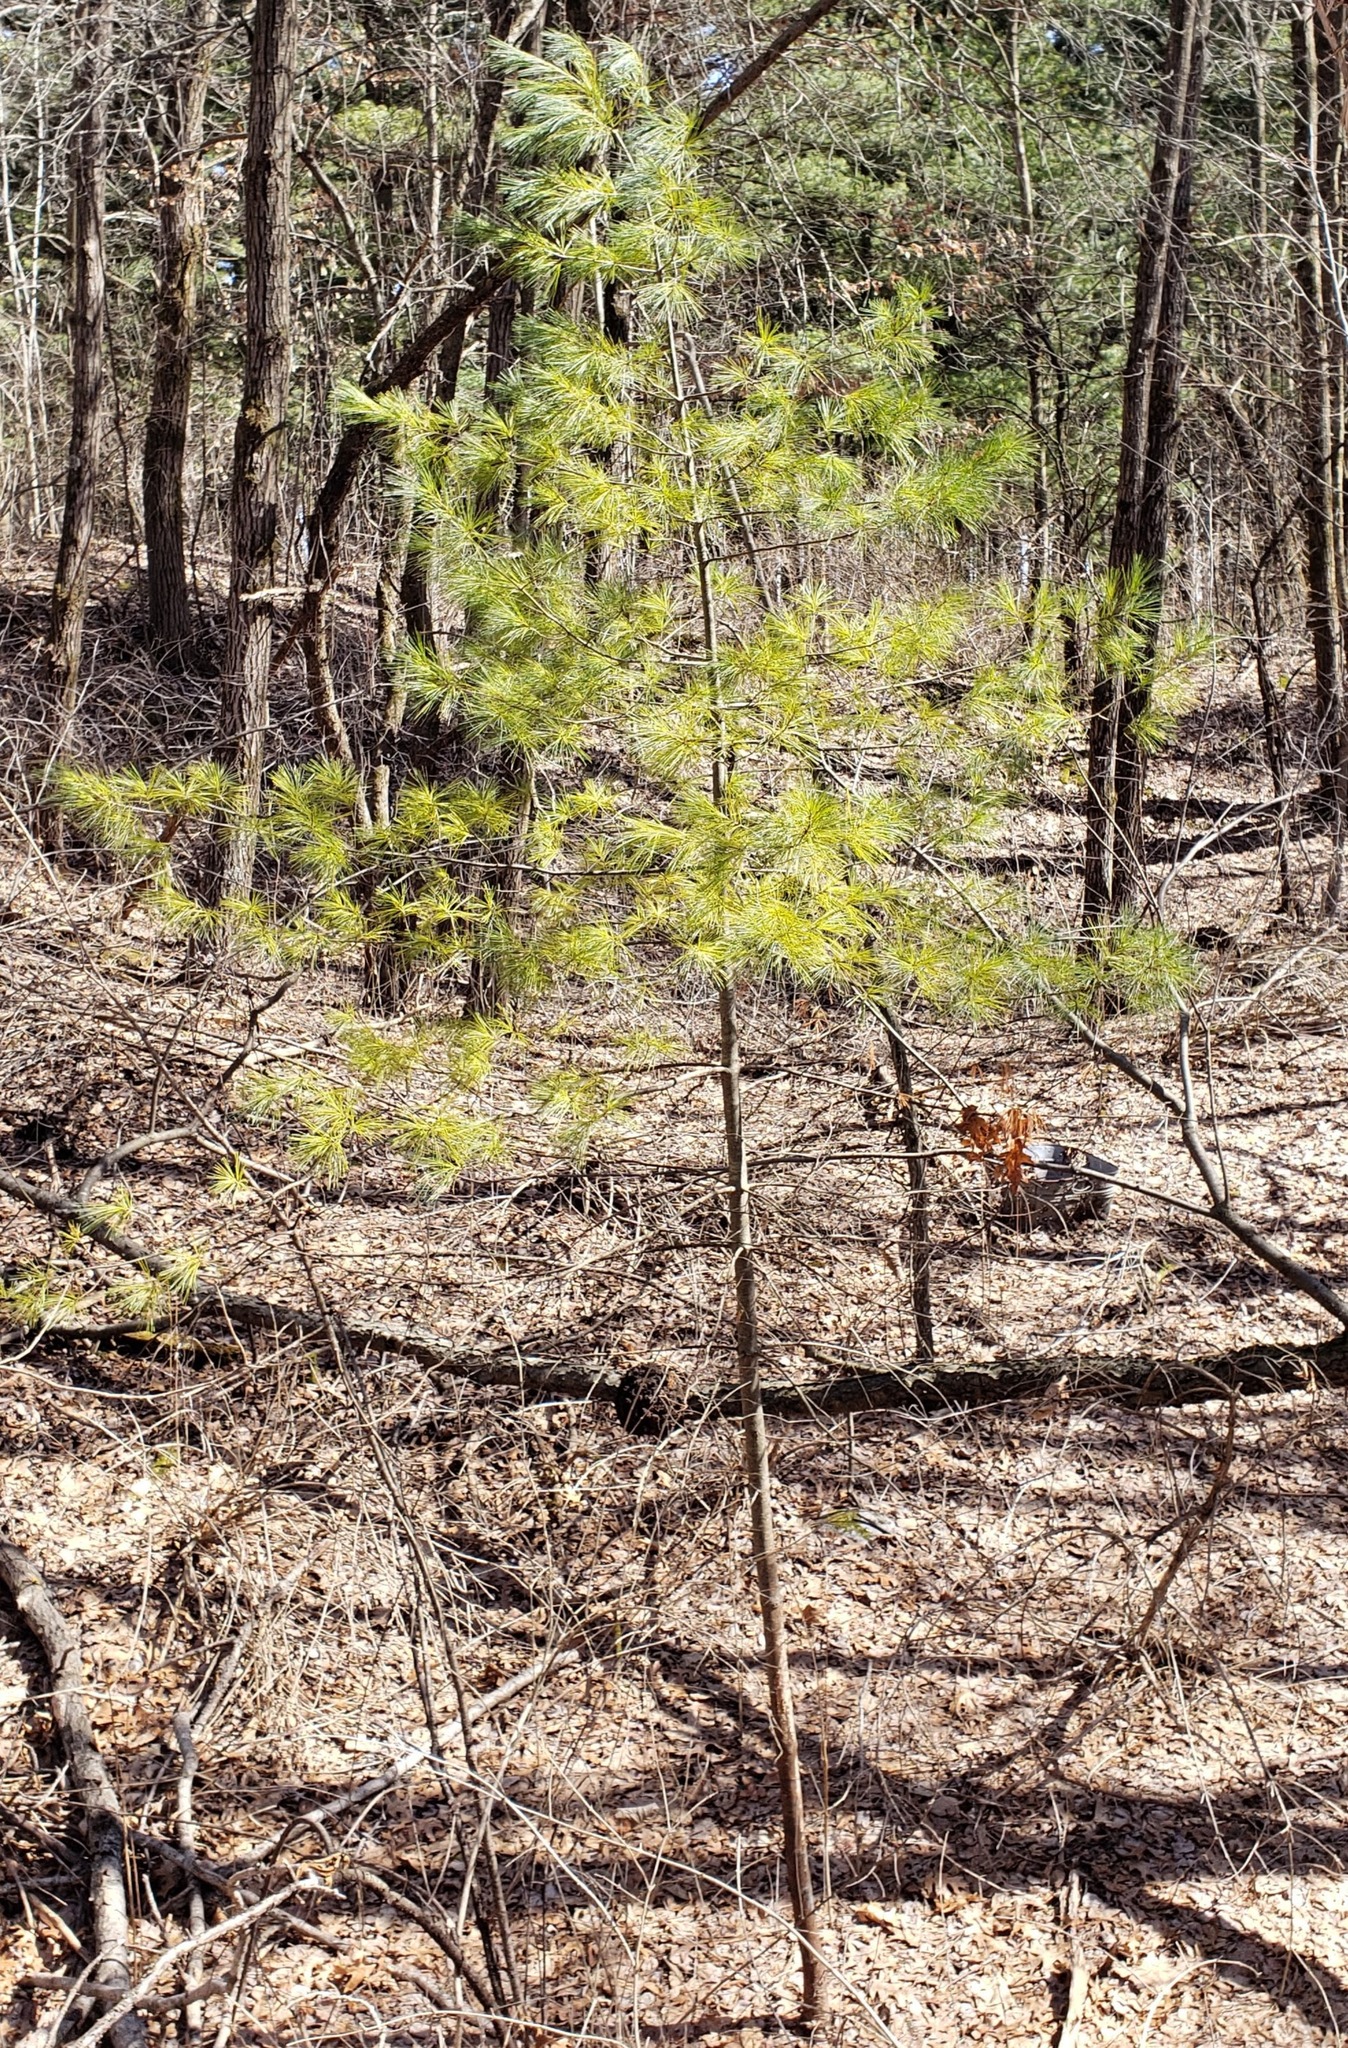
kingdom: Plantae
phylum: Tracheophyta
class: Pinopsida
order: Pinales
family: Pinaceae
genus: Pinus
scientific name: Pinus strobus
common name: Weymouth pine
